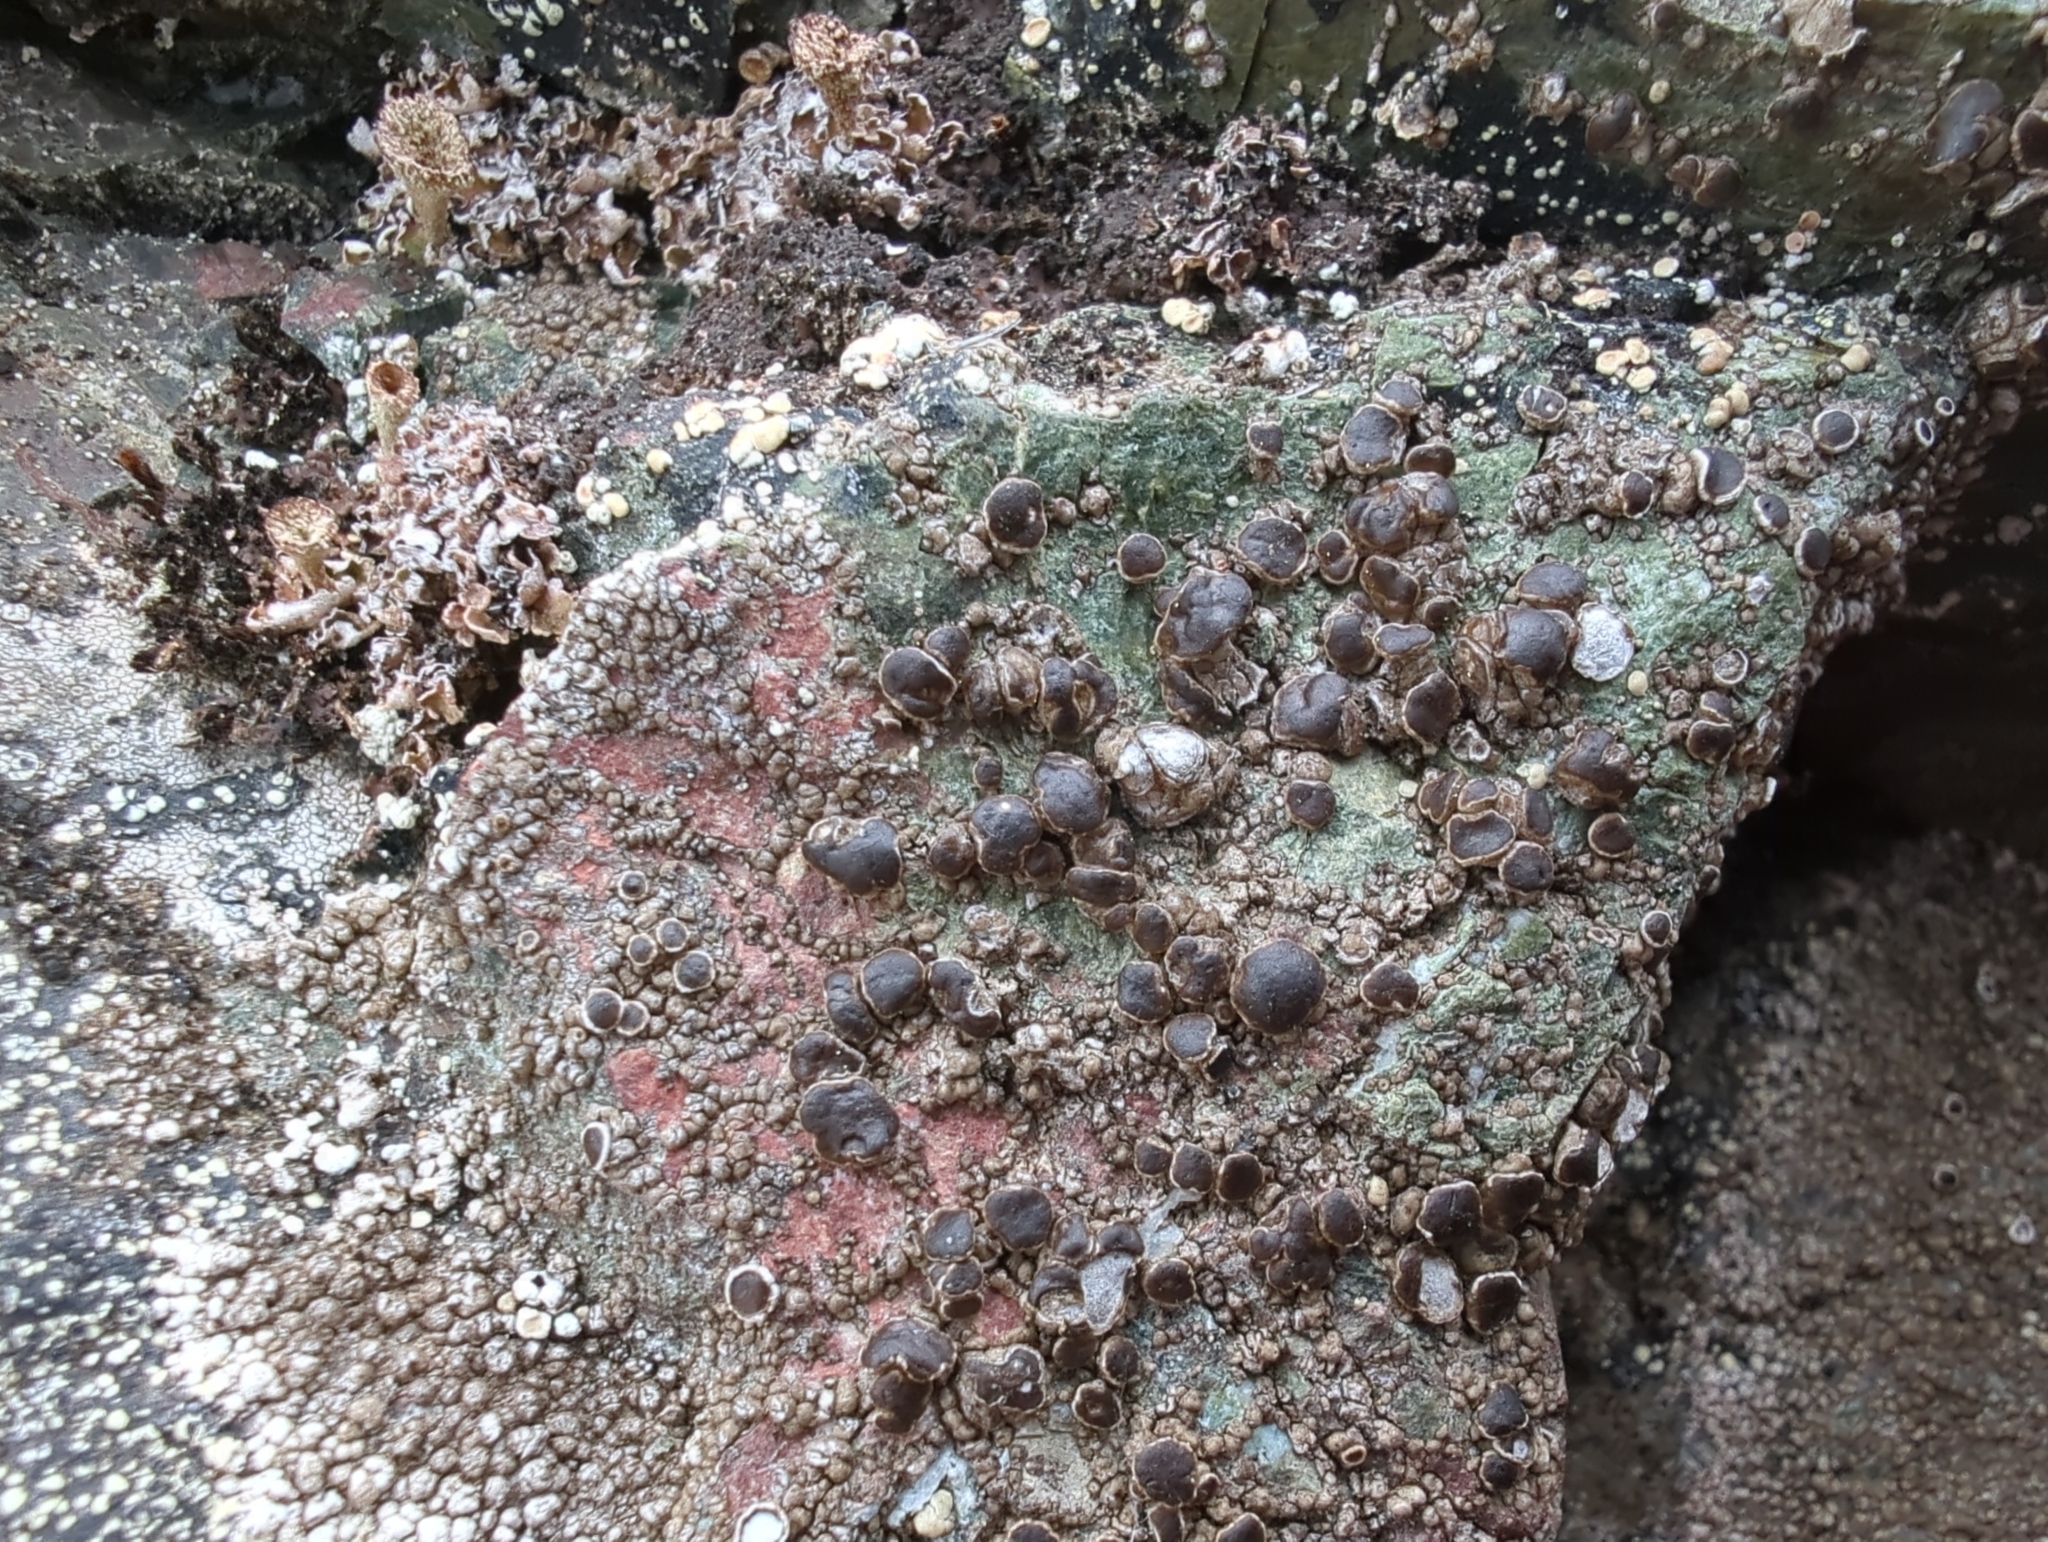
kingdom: Fungi
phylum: Ascomycota
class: Lecanoromycetes
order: Lecanorales
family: Parmeliaceae
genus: Protoparmelia
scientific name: Protoparmelia badia
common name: Chocolate rim lichen
